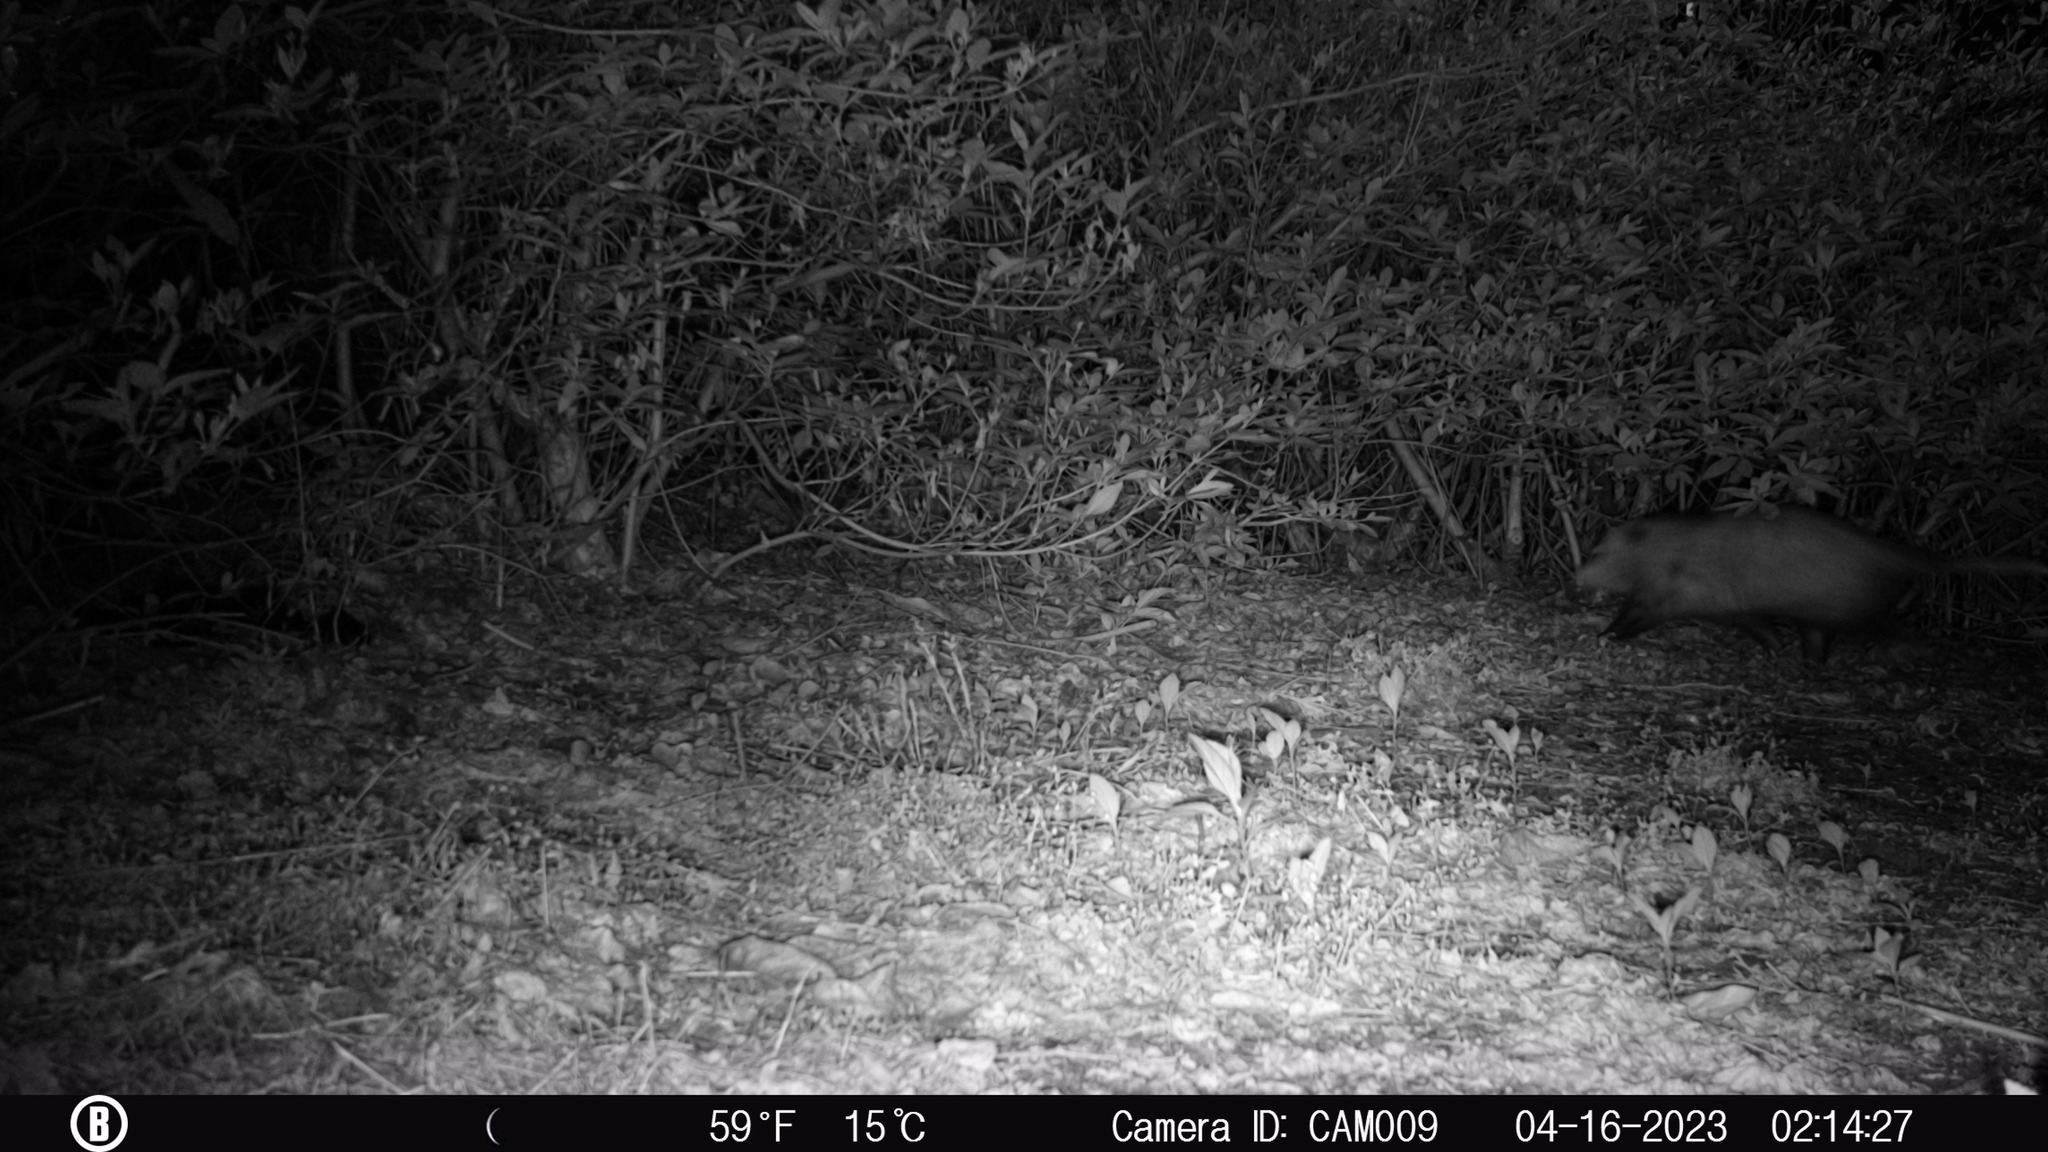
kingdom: Animalia
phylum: Chordata
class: Mammalia
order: Didelphimorphia
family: Didelphidae
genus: Didelphis
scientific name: Didelphis virginiana
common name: Virginia opossum
